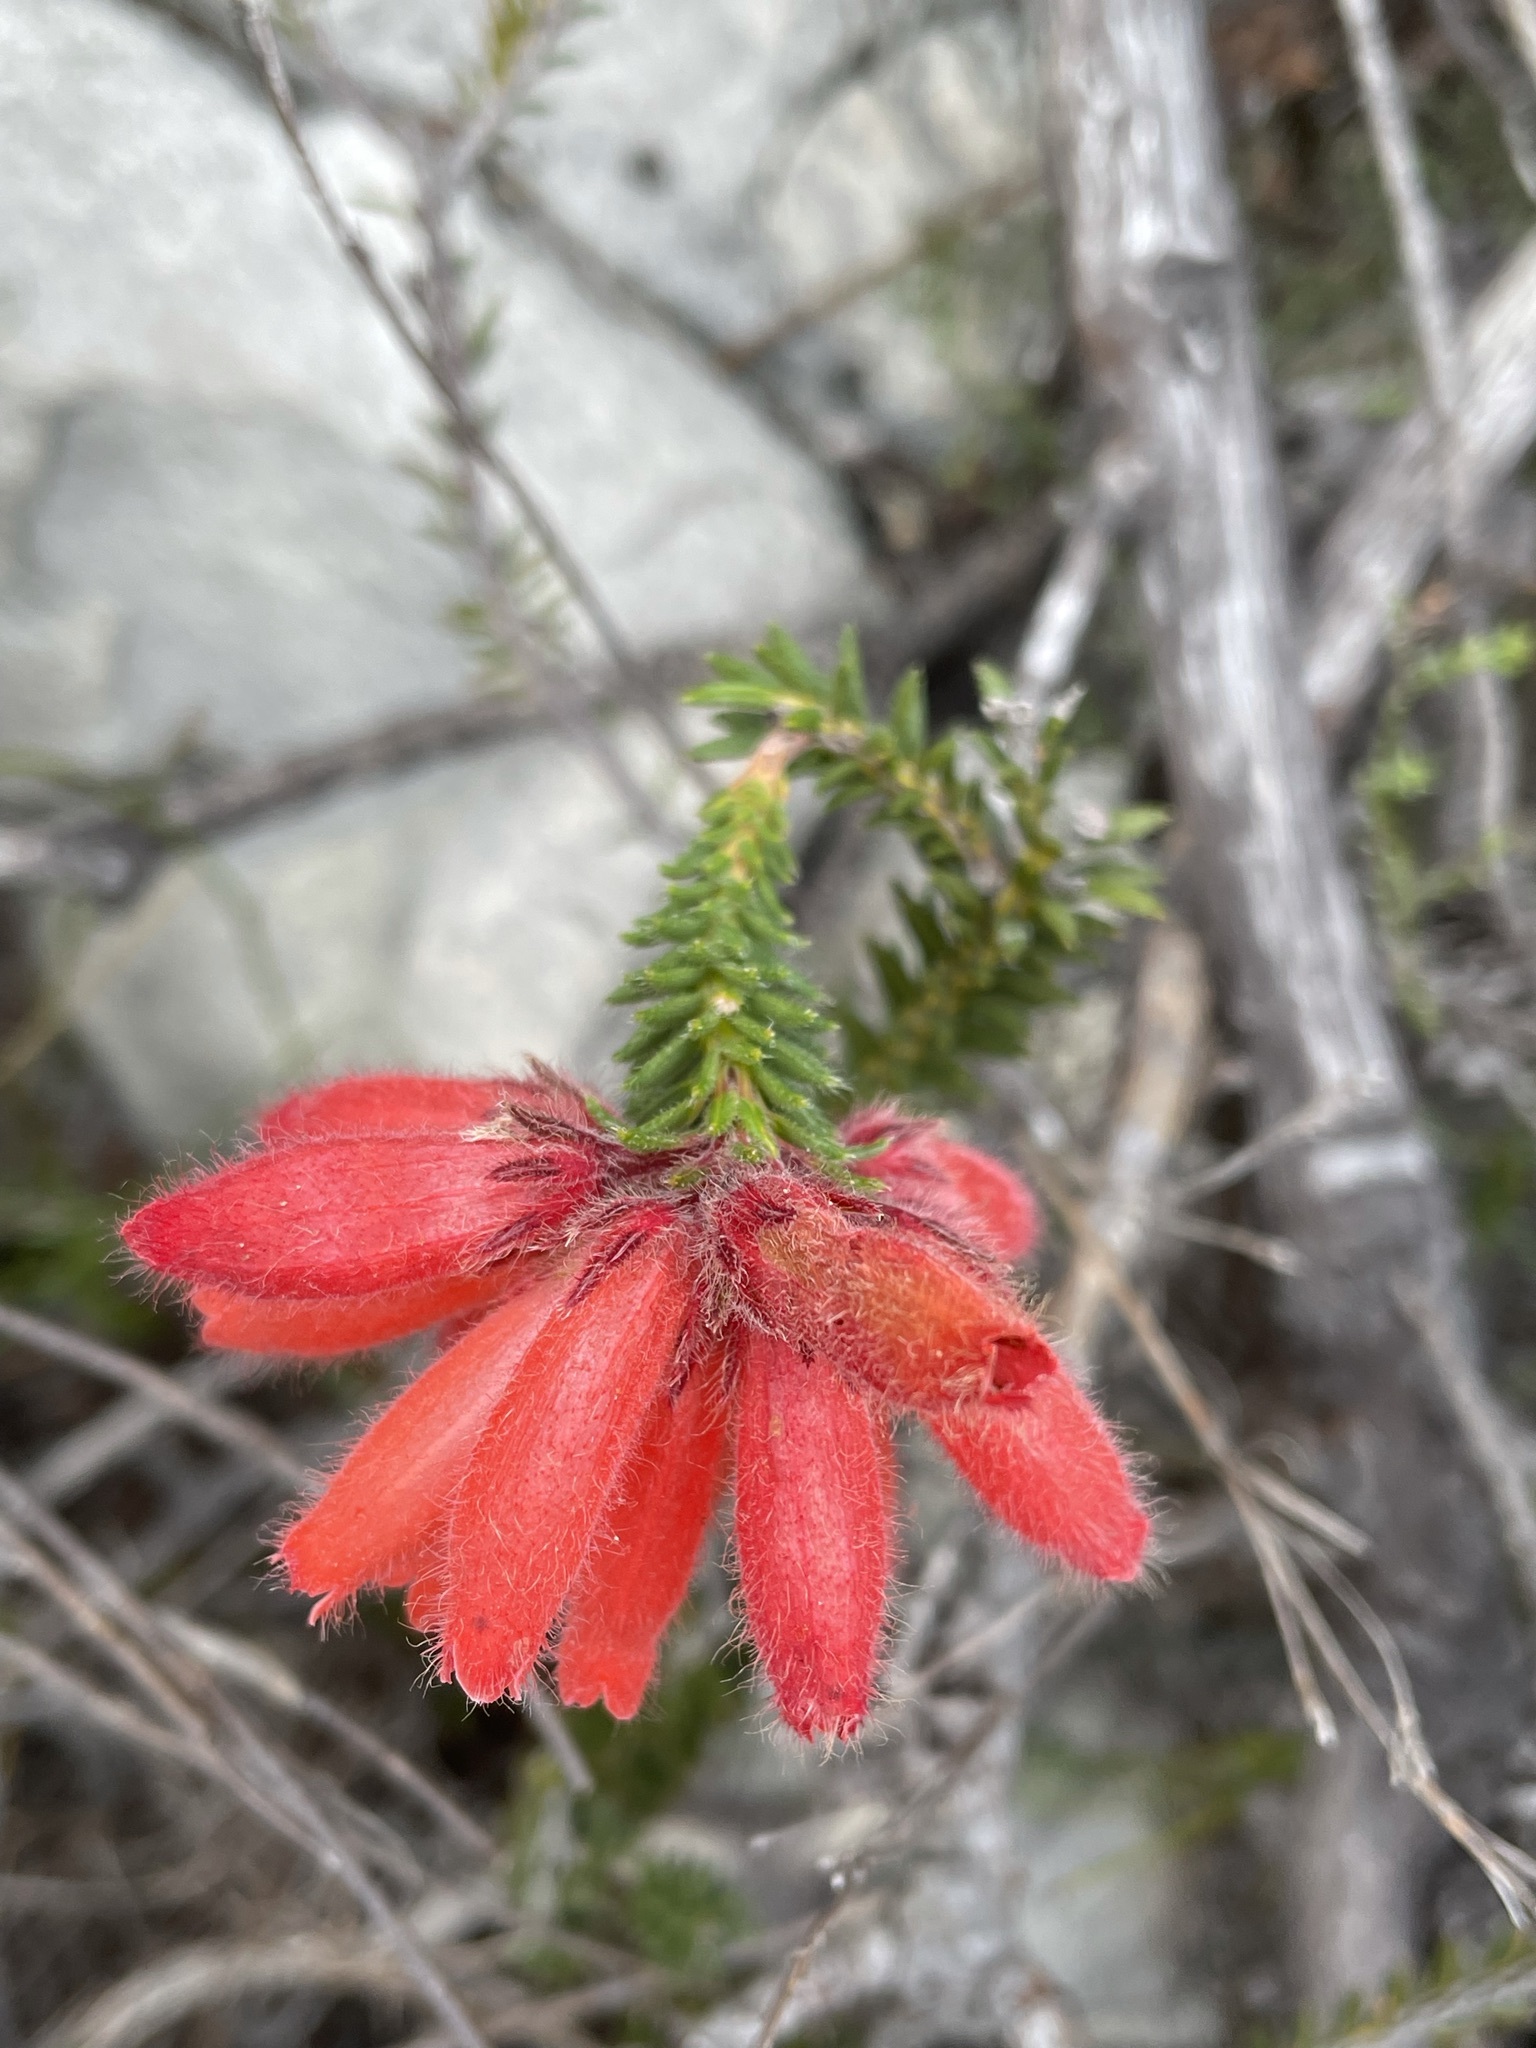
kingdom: Plantae
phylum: Tracheophyta
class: Magnoliopsida
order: Ericales
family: Ericaceae
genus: Erica
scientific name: Erica cerinthoides
